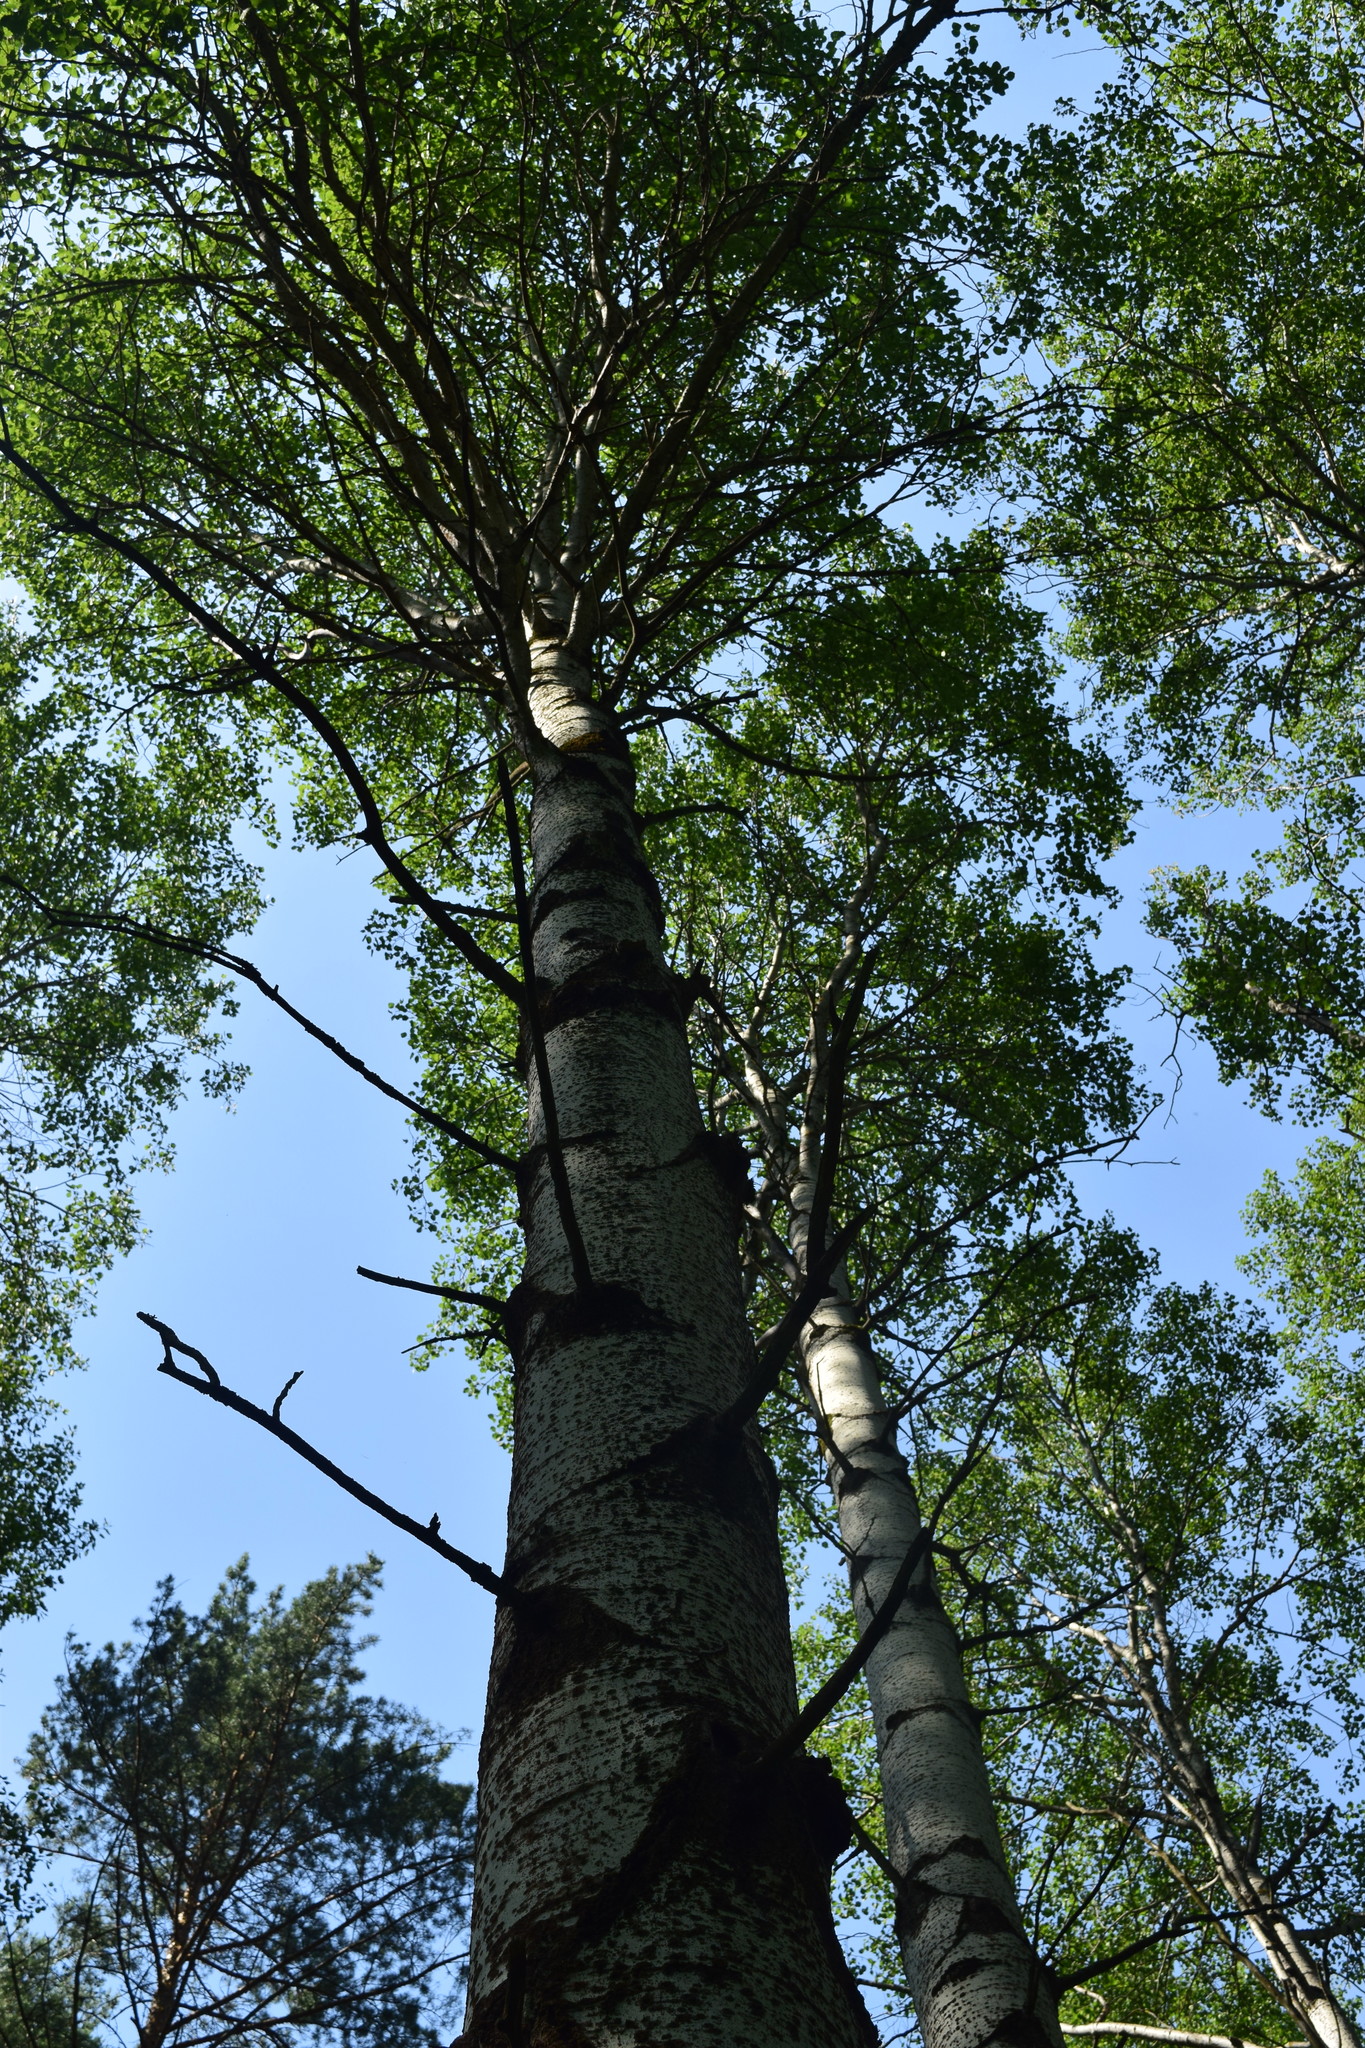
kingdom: Plantae
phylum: Tracheophyta
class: Magnoliopsida
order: Malpighiales
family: Salicaceae
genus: Populus
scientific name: Populus tremula
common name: European aspen
